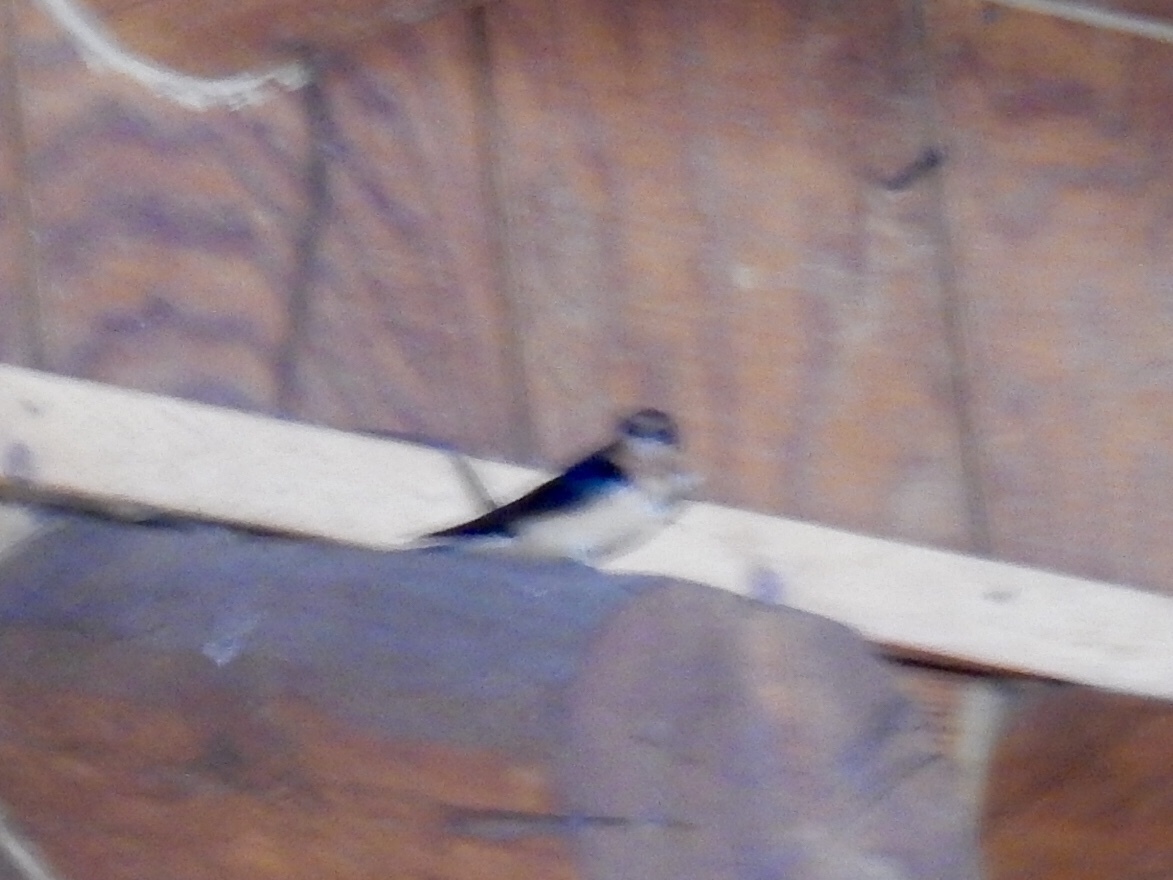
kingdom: Animalia
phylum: Chordata
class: Aves
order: Passeriformes
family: Hirundinidae
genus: Hirundo
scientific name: Hirundo rustica
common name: Barn swallow
